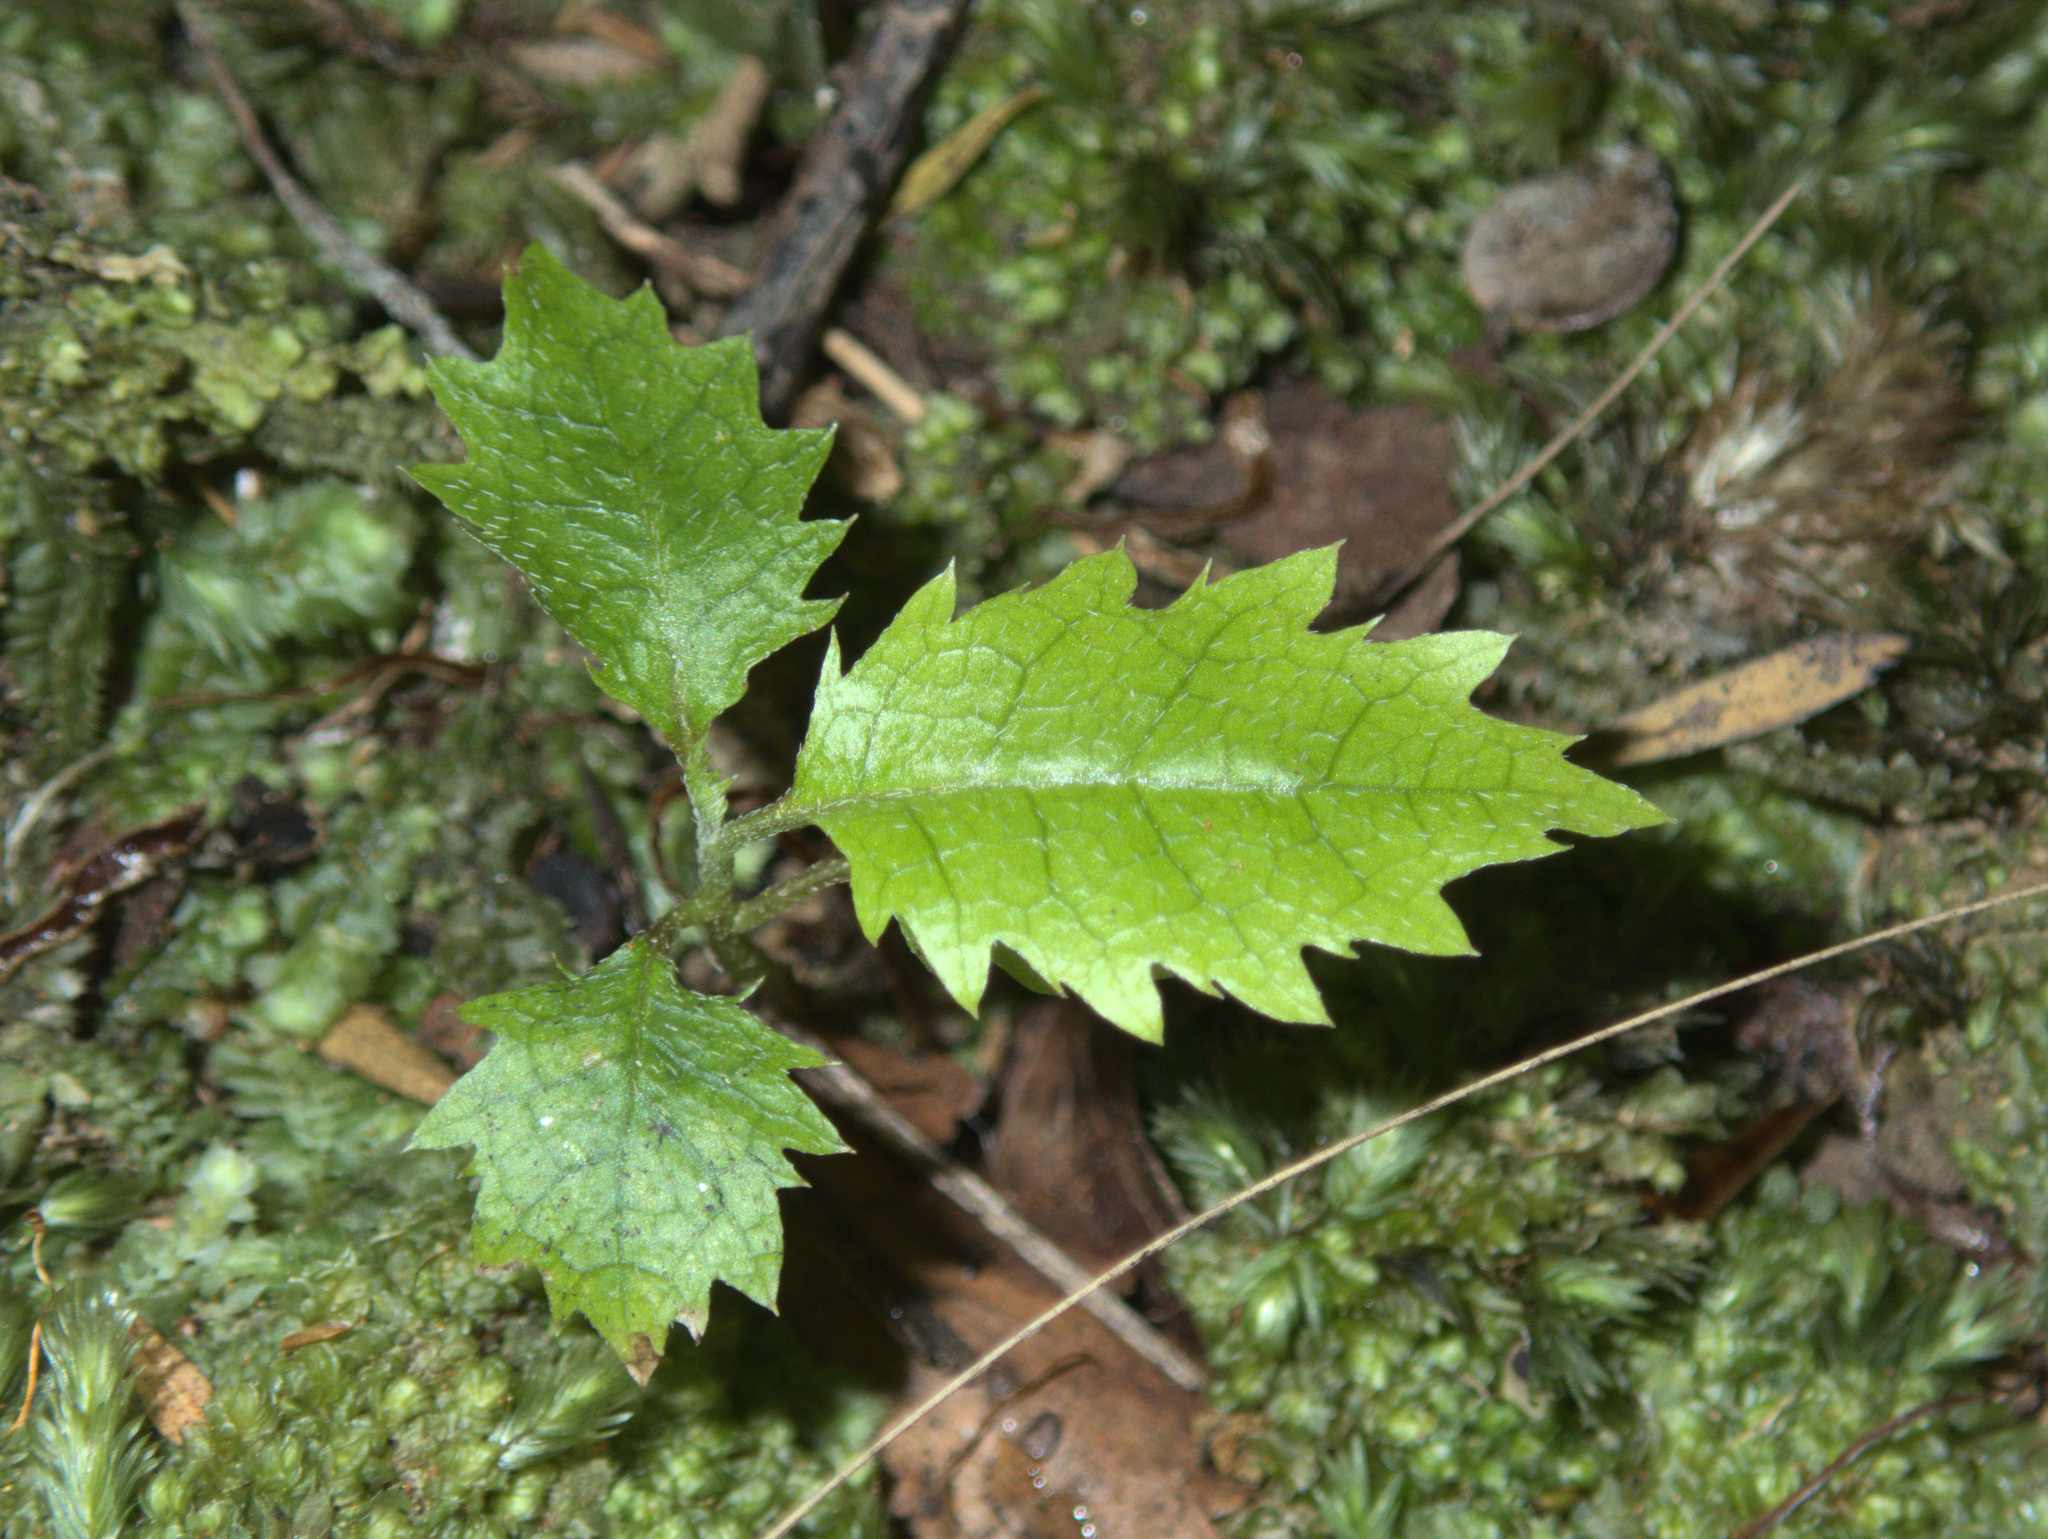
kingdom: Plantae
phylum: Tracheophyta
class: Magnoliopsida
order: Asterales
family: Rousseaceae
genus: Carpodetus
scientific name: Carpodetus serratus
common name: White mapau
